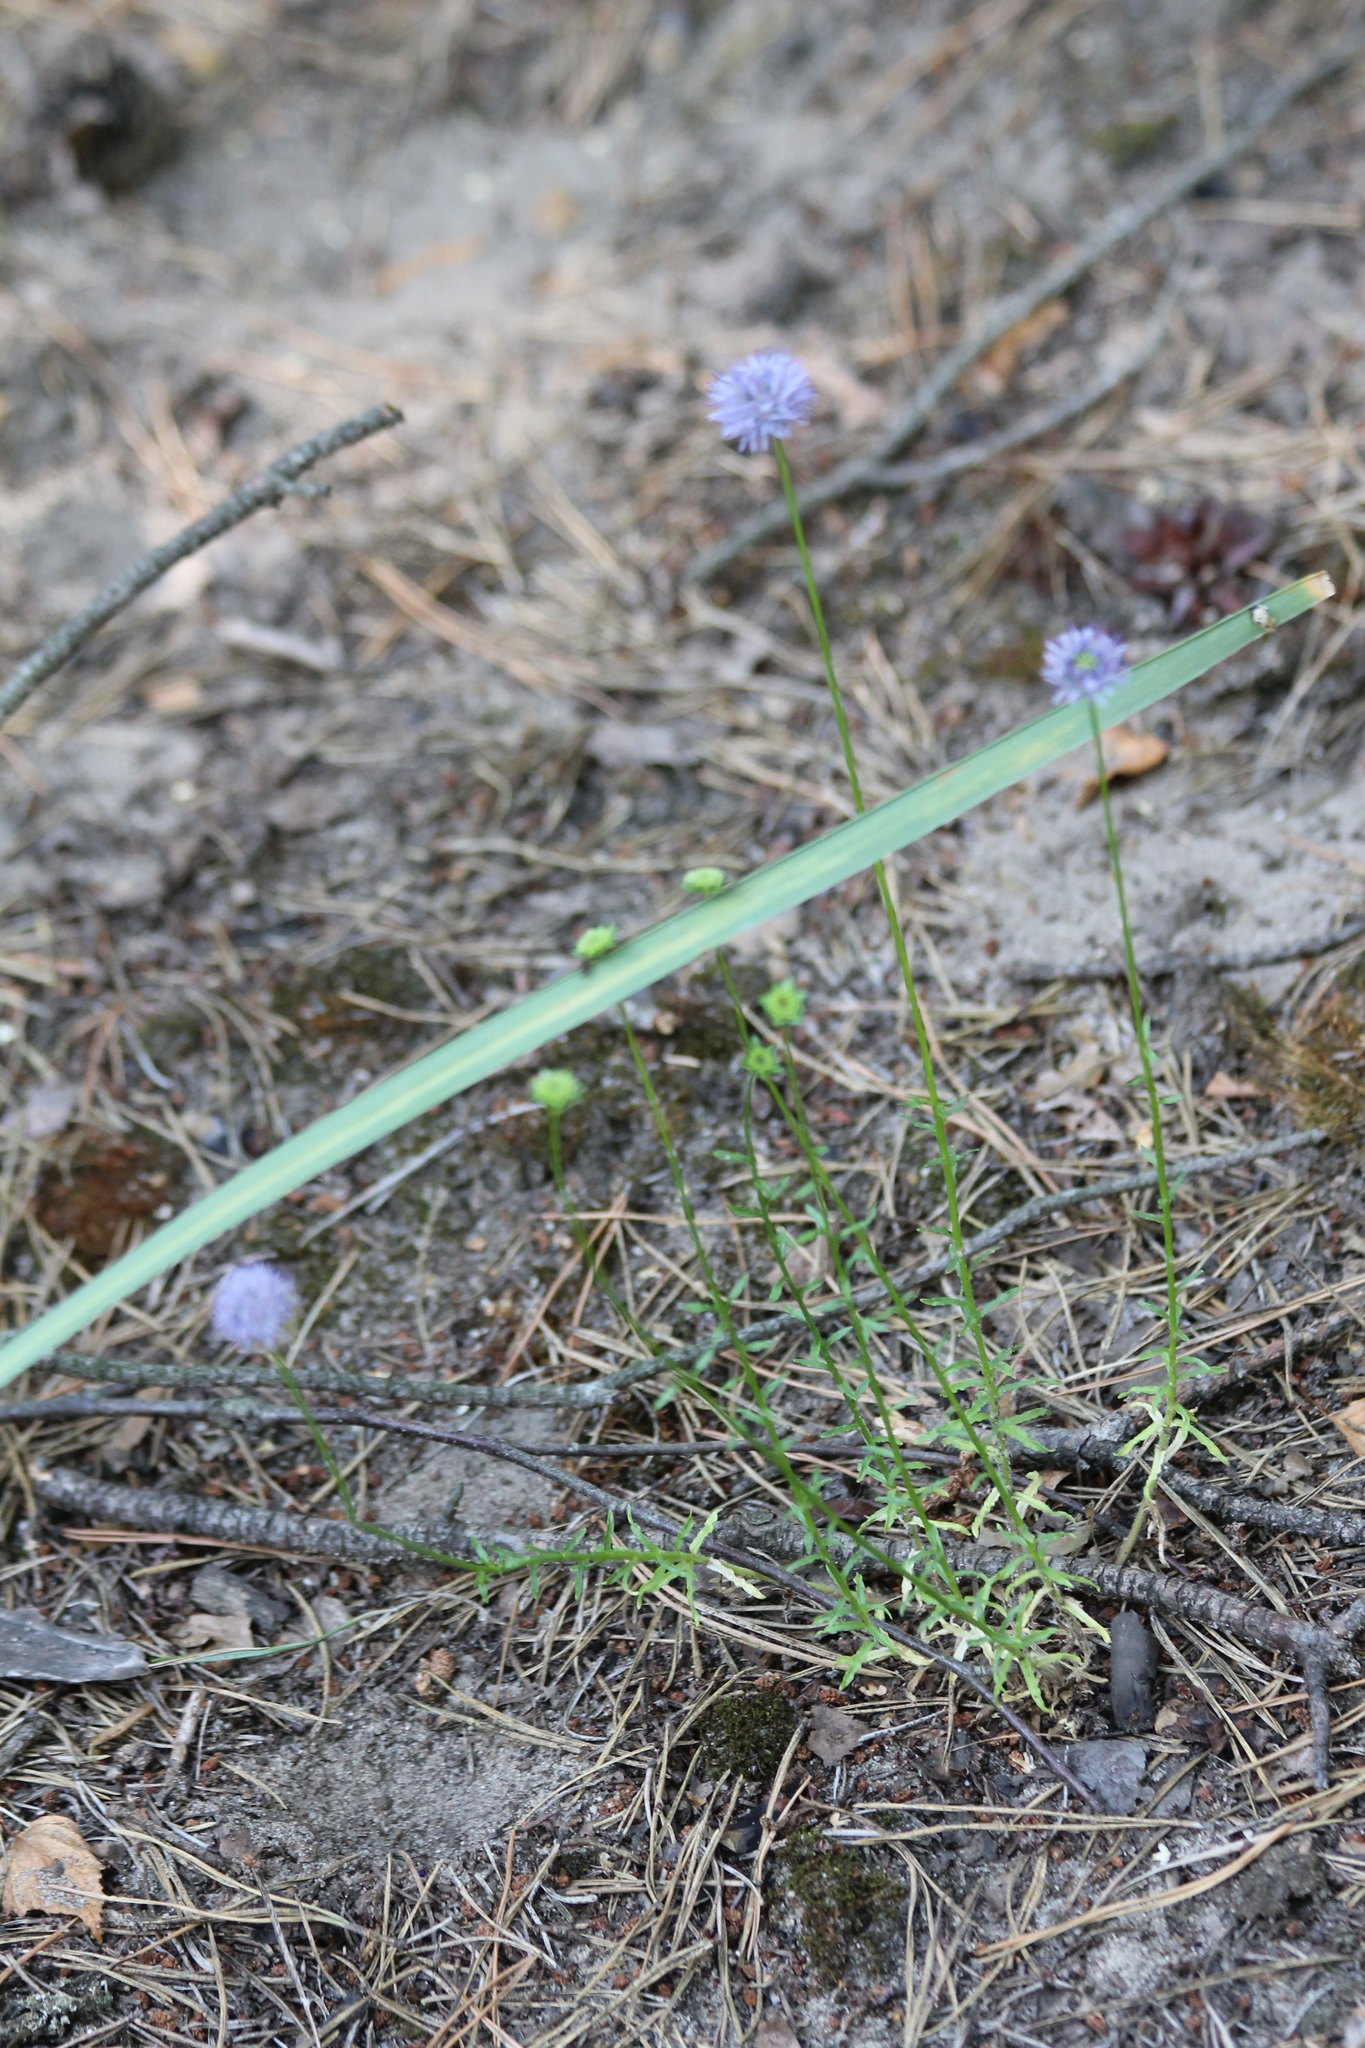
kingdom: Plantae
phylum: Tracheophyta
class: Magnoliopsida
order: Asterales
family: Campanulaceae
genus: Jasione
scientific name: Jasione montana
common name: Sheep's-bit
